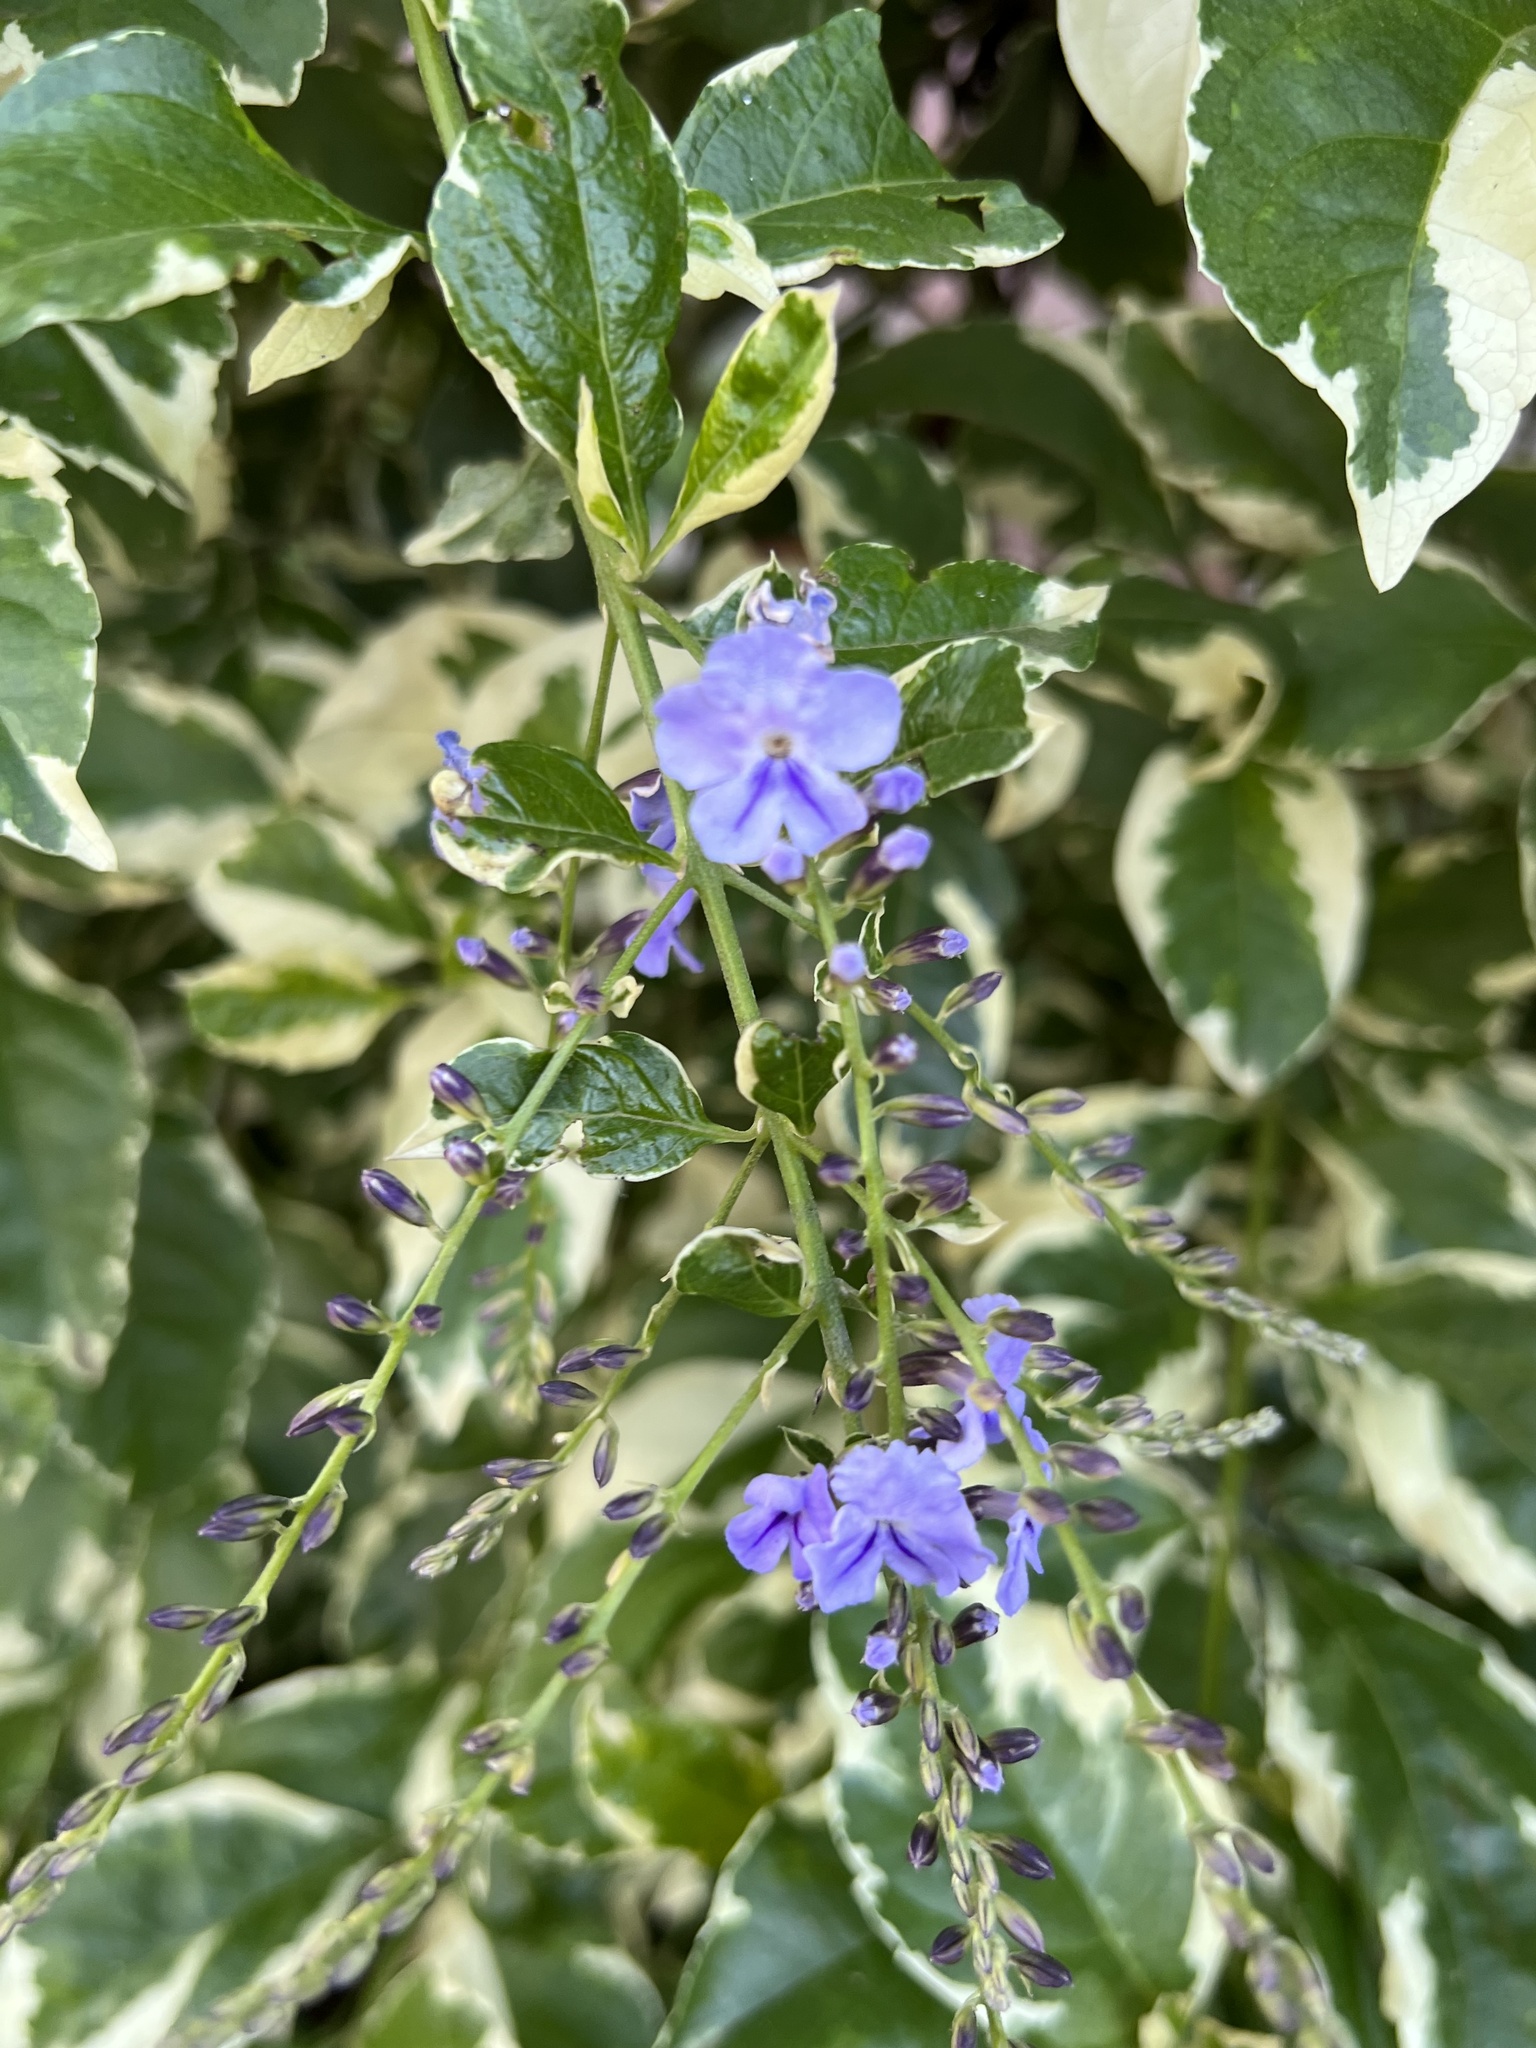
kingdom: Plantae
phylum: Tracheophyta
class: Magnoliopsida
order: Lamiales
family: Verbenaceae
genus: Duranta
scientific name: Duranta erecta
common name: Golden dewdrops
